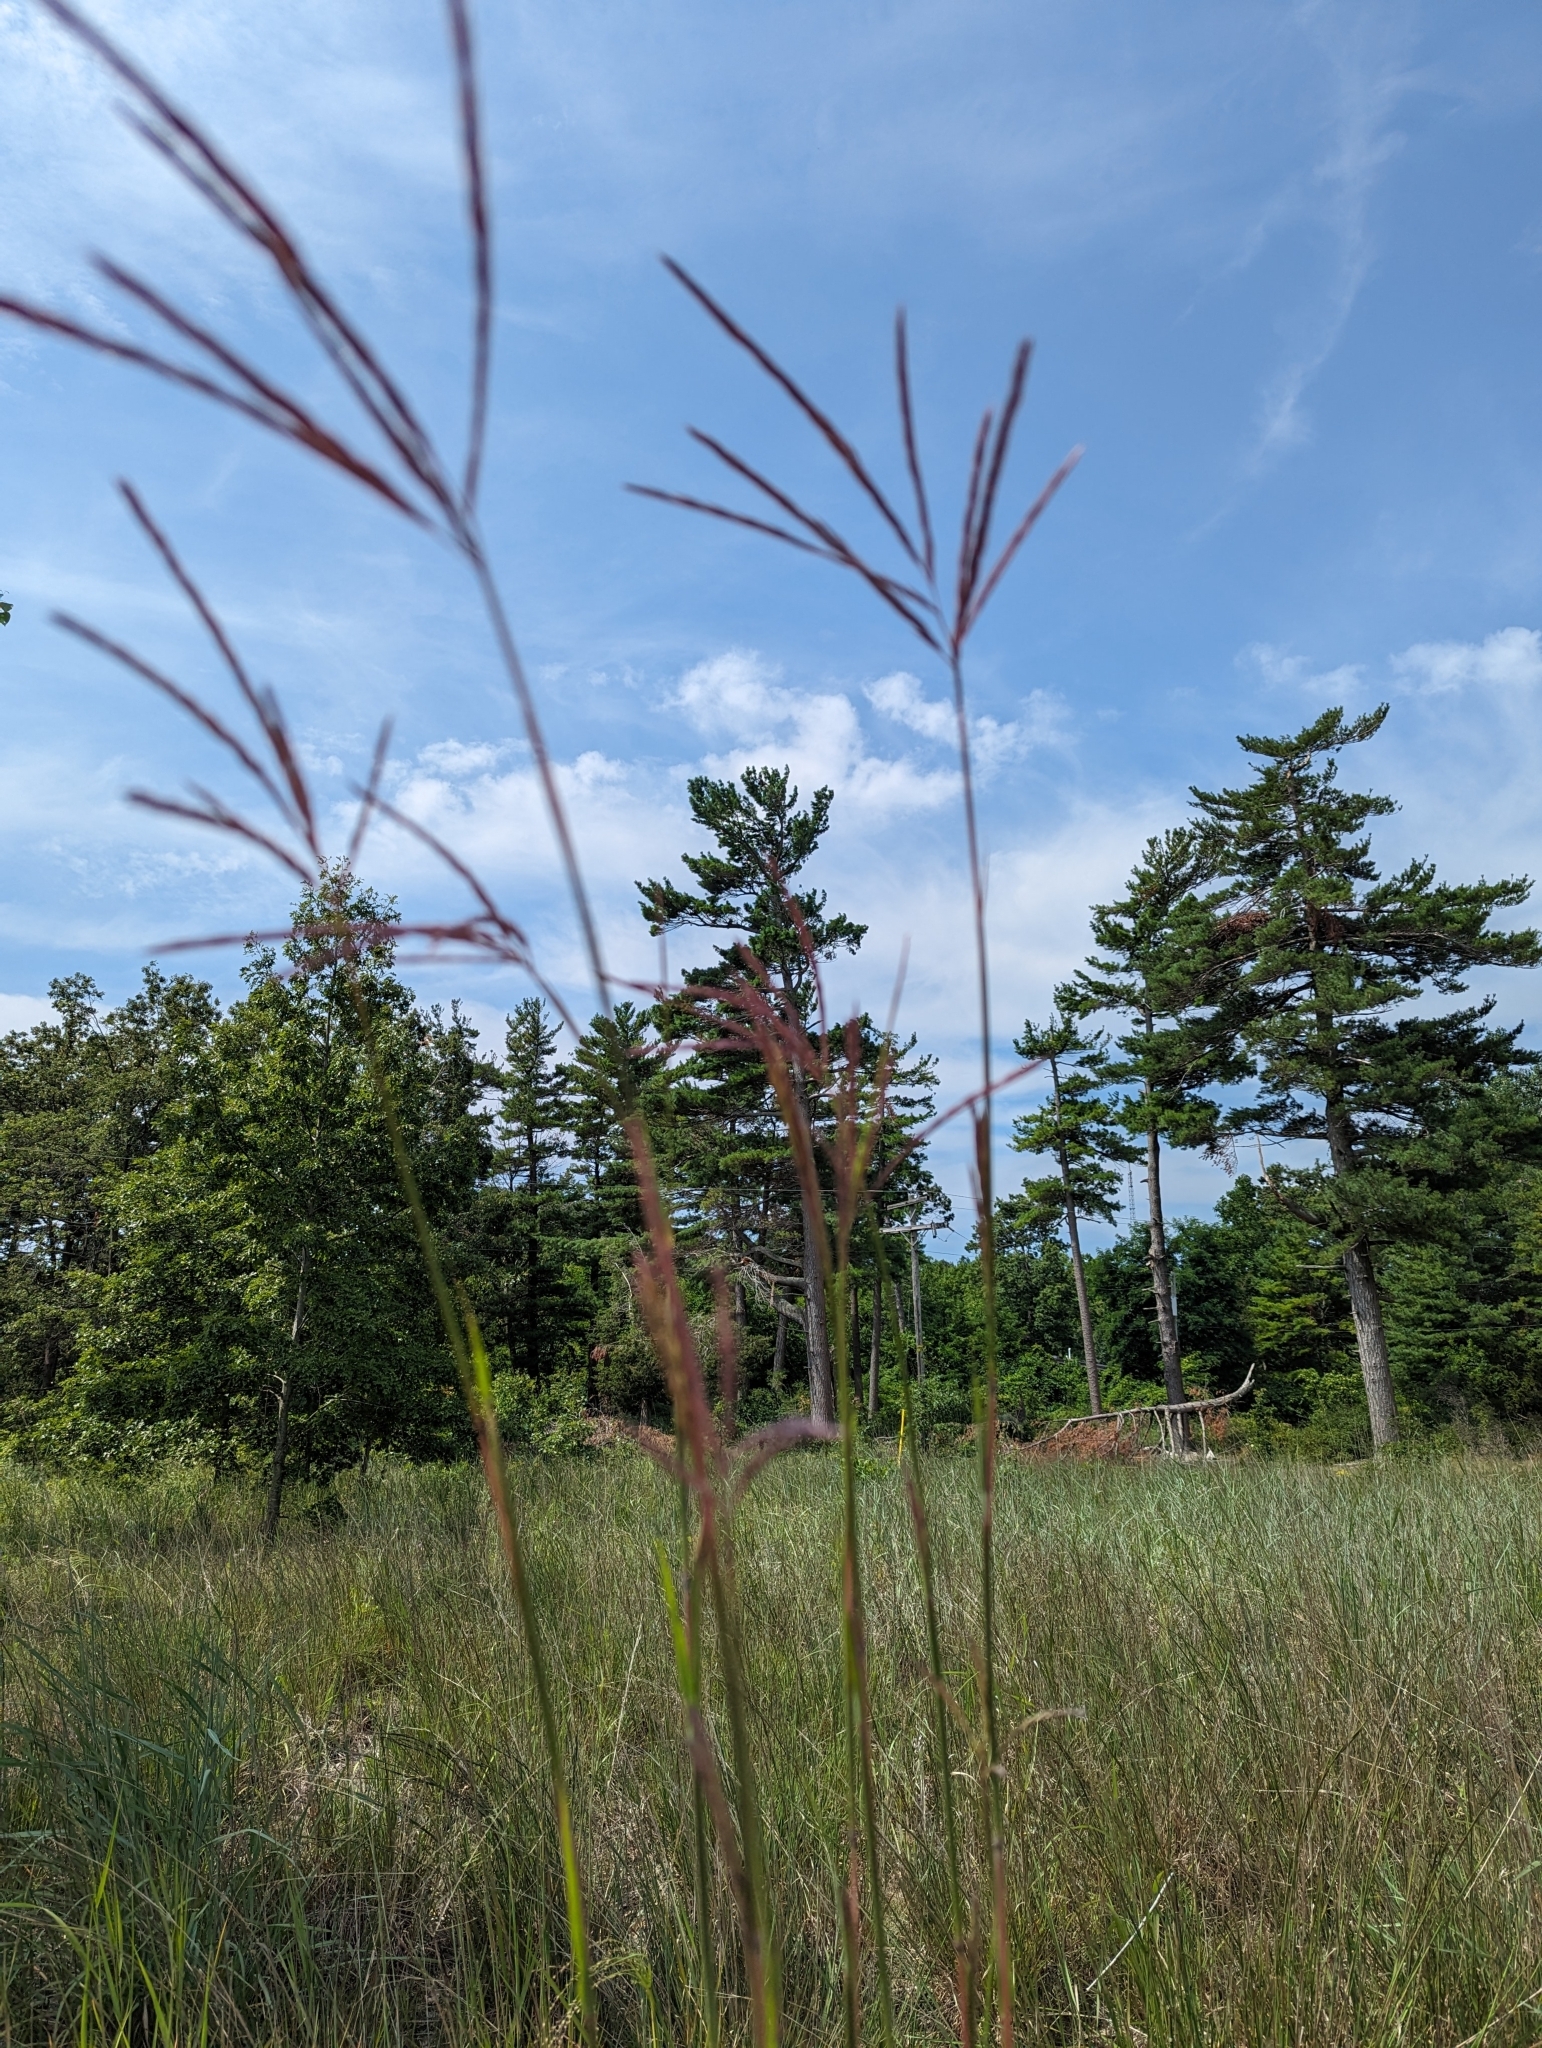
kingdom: Plantae
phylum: Tracheophyta
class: Liliopsida
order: Poales
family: Poaceae
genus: Andropogon
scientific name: Andropogon gerardi
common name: Big bluestem
